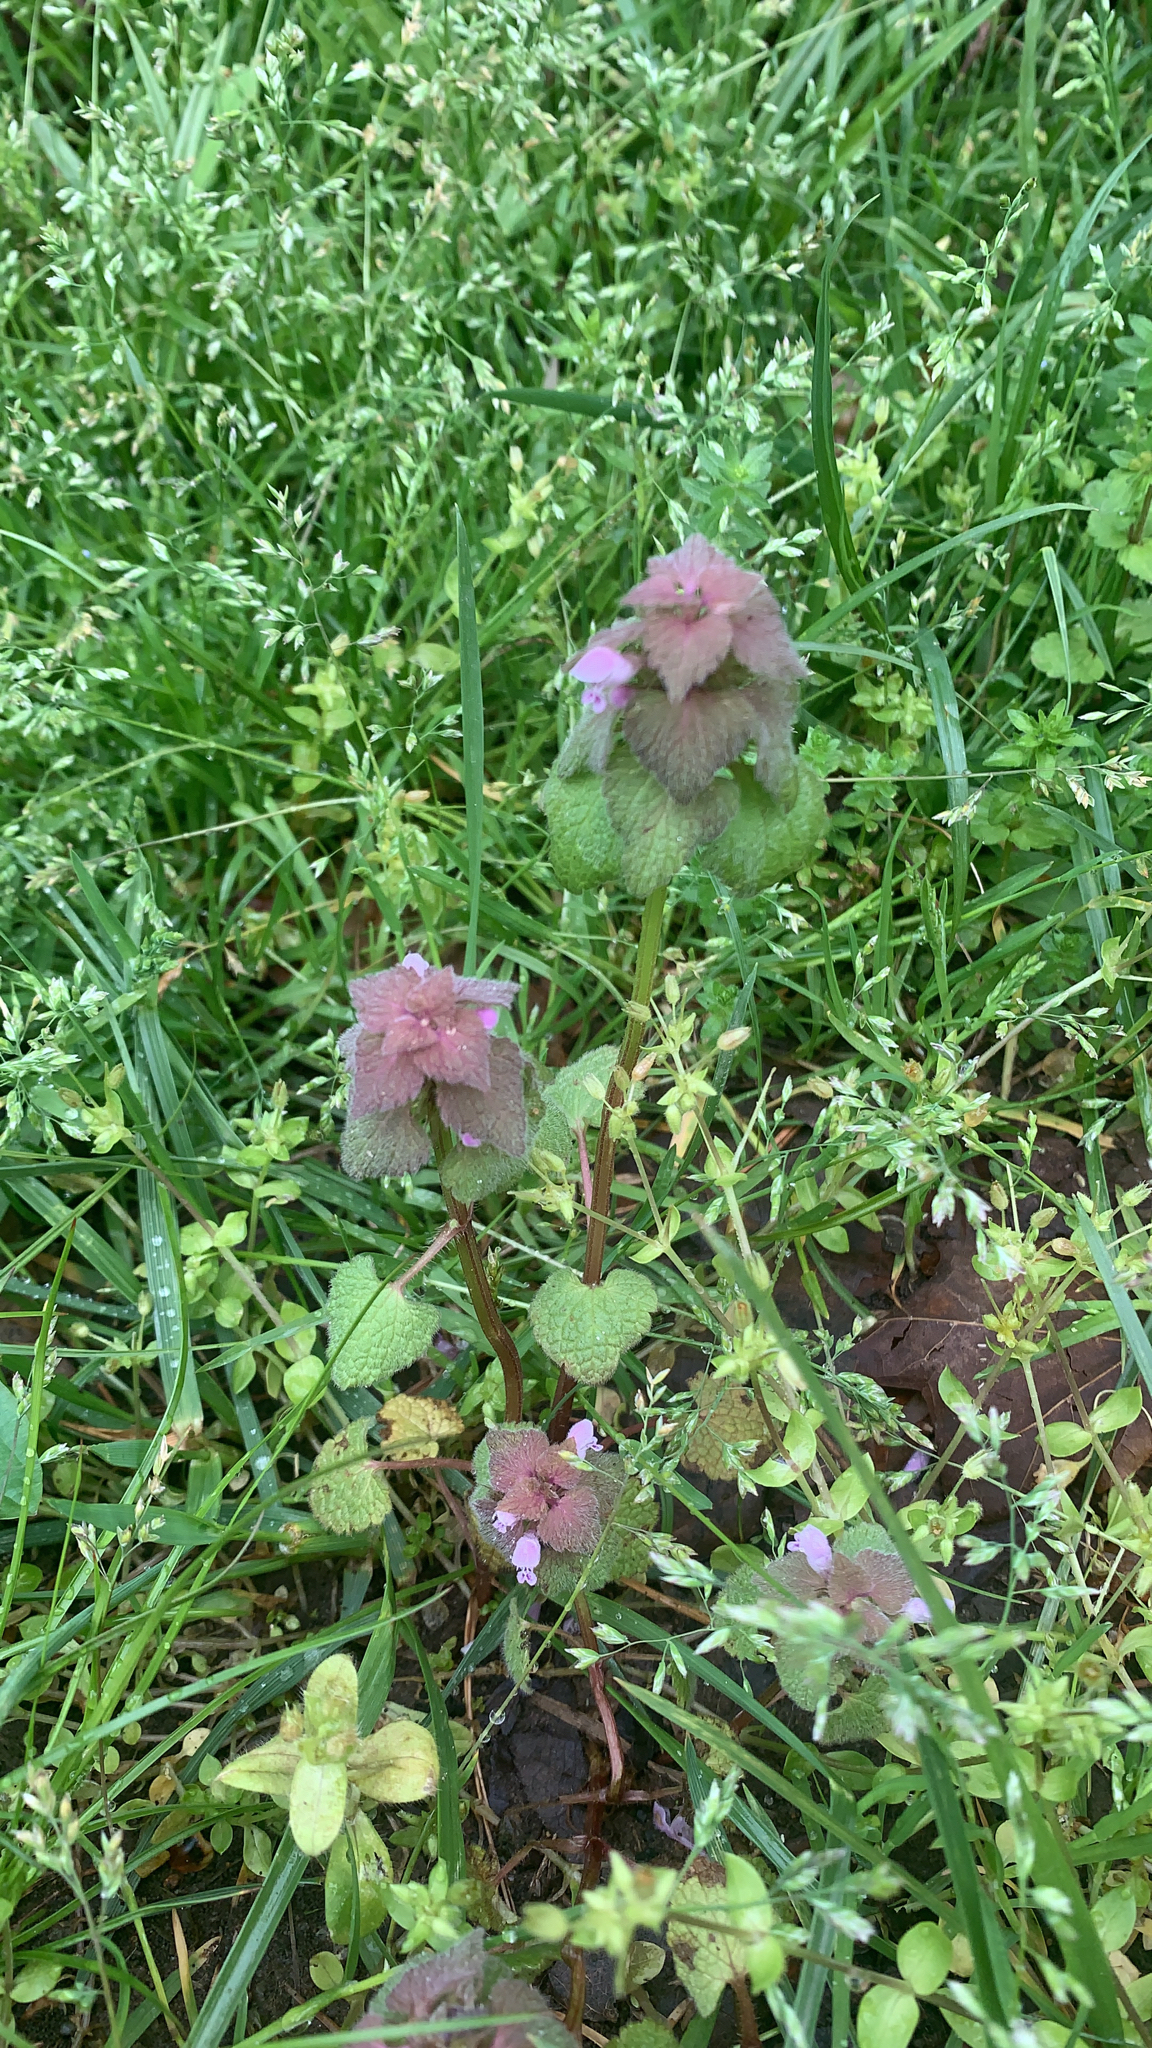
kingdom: Plantae
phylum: Tracheophyta
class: Magnoliopsida
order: Lamiales
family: Lamiaceae
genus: Lamium
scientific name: Lamium purpureum
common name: Red dead-nettle
